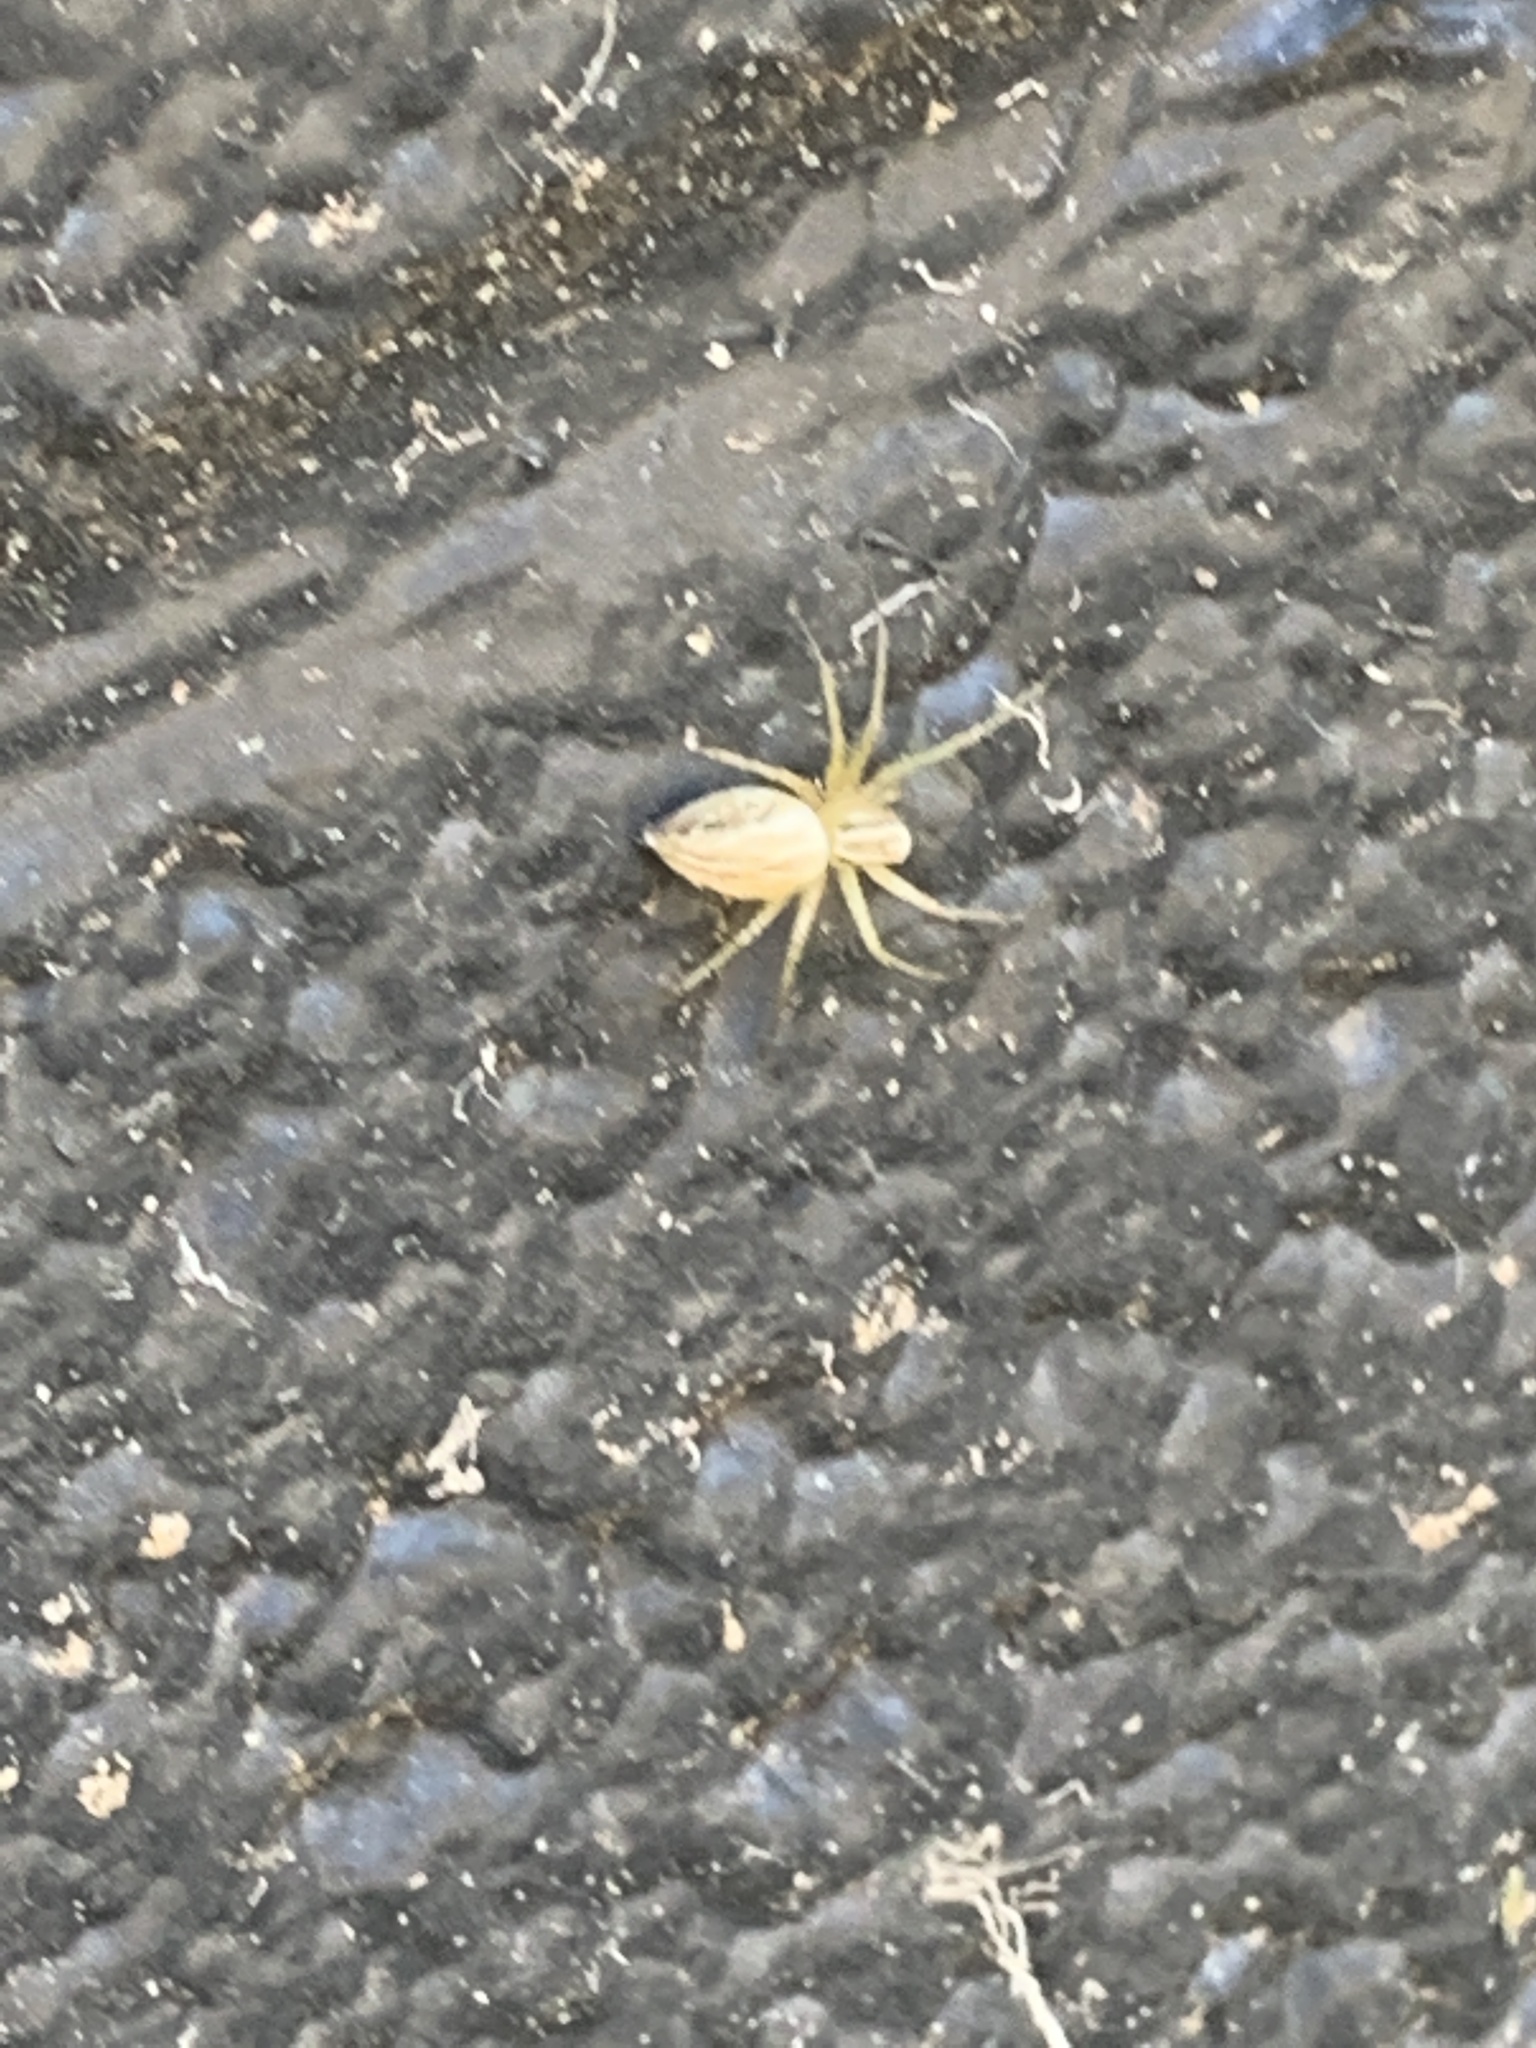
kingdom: Animalia
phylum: Arthropoda
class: Arachnida
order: Araneae
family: Oxyopidae
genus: Oxyopes
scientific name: Oxyopes salticus
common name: Lynx spiders
